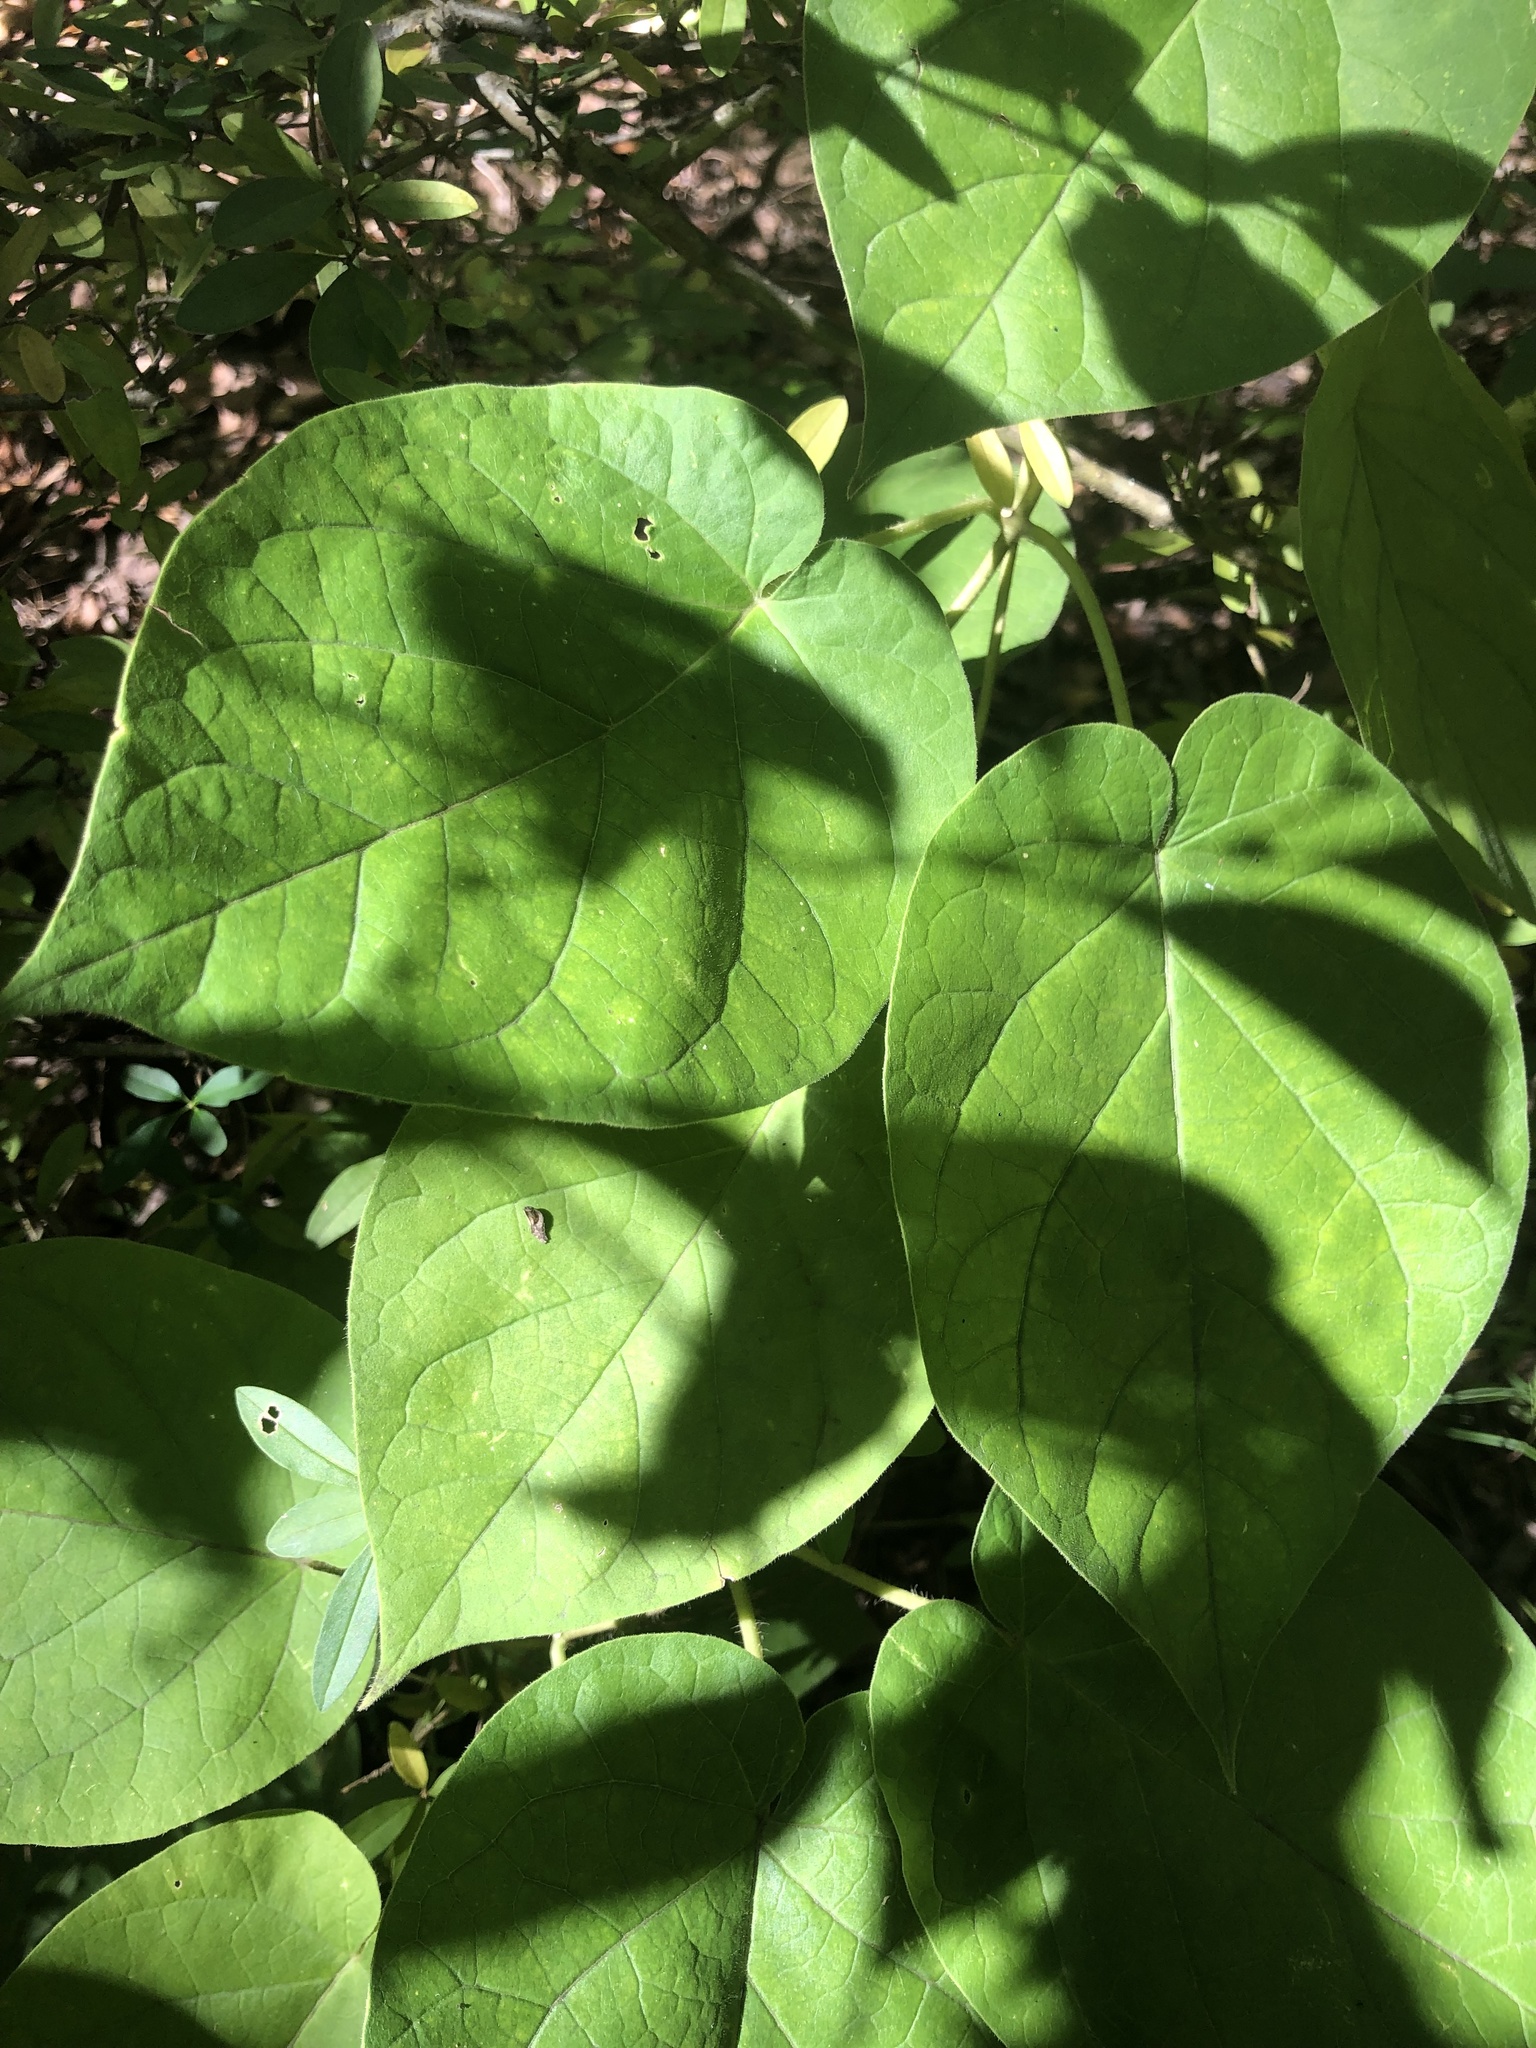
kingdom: Plantae
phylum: Tracheophyta
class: Magnoliopsida
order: Gentianales
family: Apocynaceae
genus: Matelea
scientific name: Matelea carolinensis
